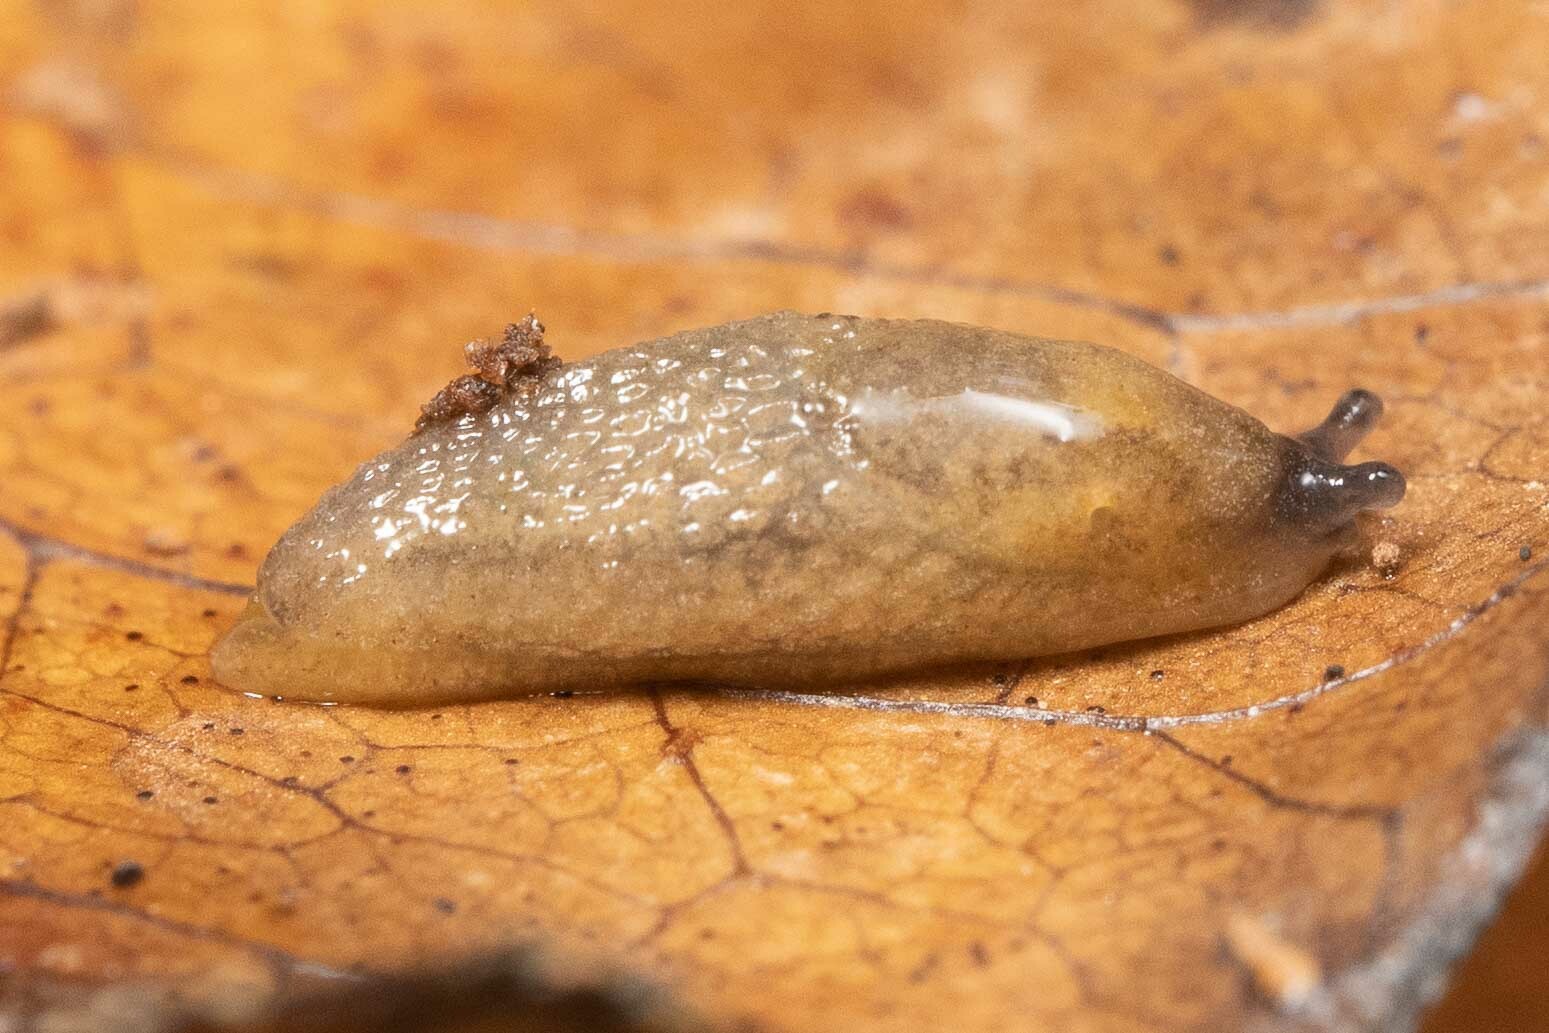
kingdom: Animalia
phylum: Mollusca
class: Gastropoda
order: Stylommatophora
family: Arionidae
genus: Arion
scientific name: Arion intermedius
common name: Hedgehog slug
